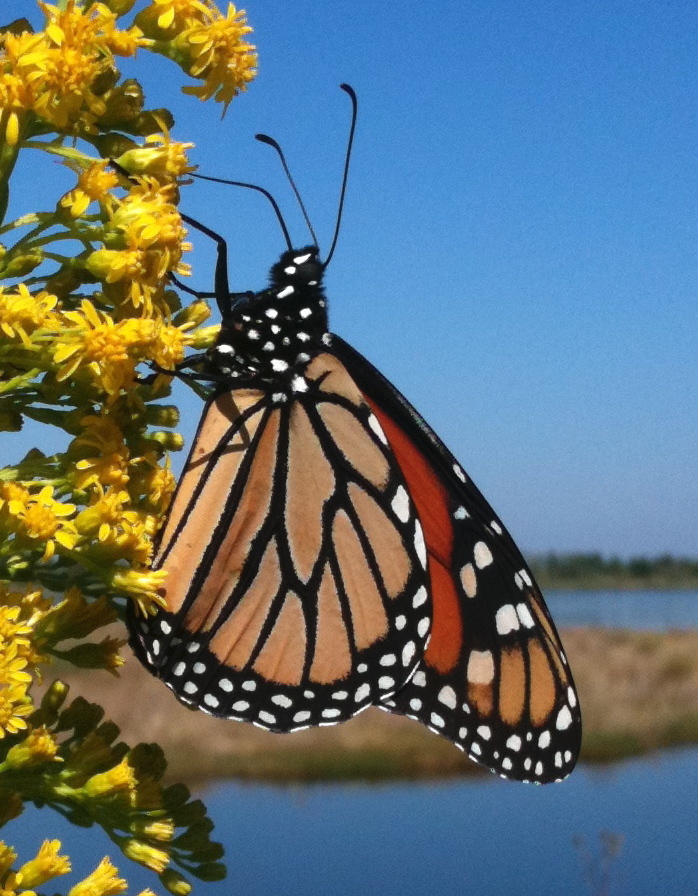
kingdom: Animalia
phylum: Arthropoda
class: Insecta
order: Lepidoptera
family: Nymphalidae
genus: Danaus
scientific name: Danaus plexippus
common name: Monarch
